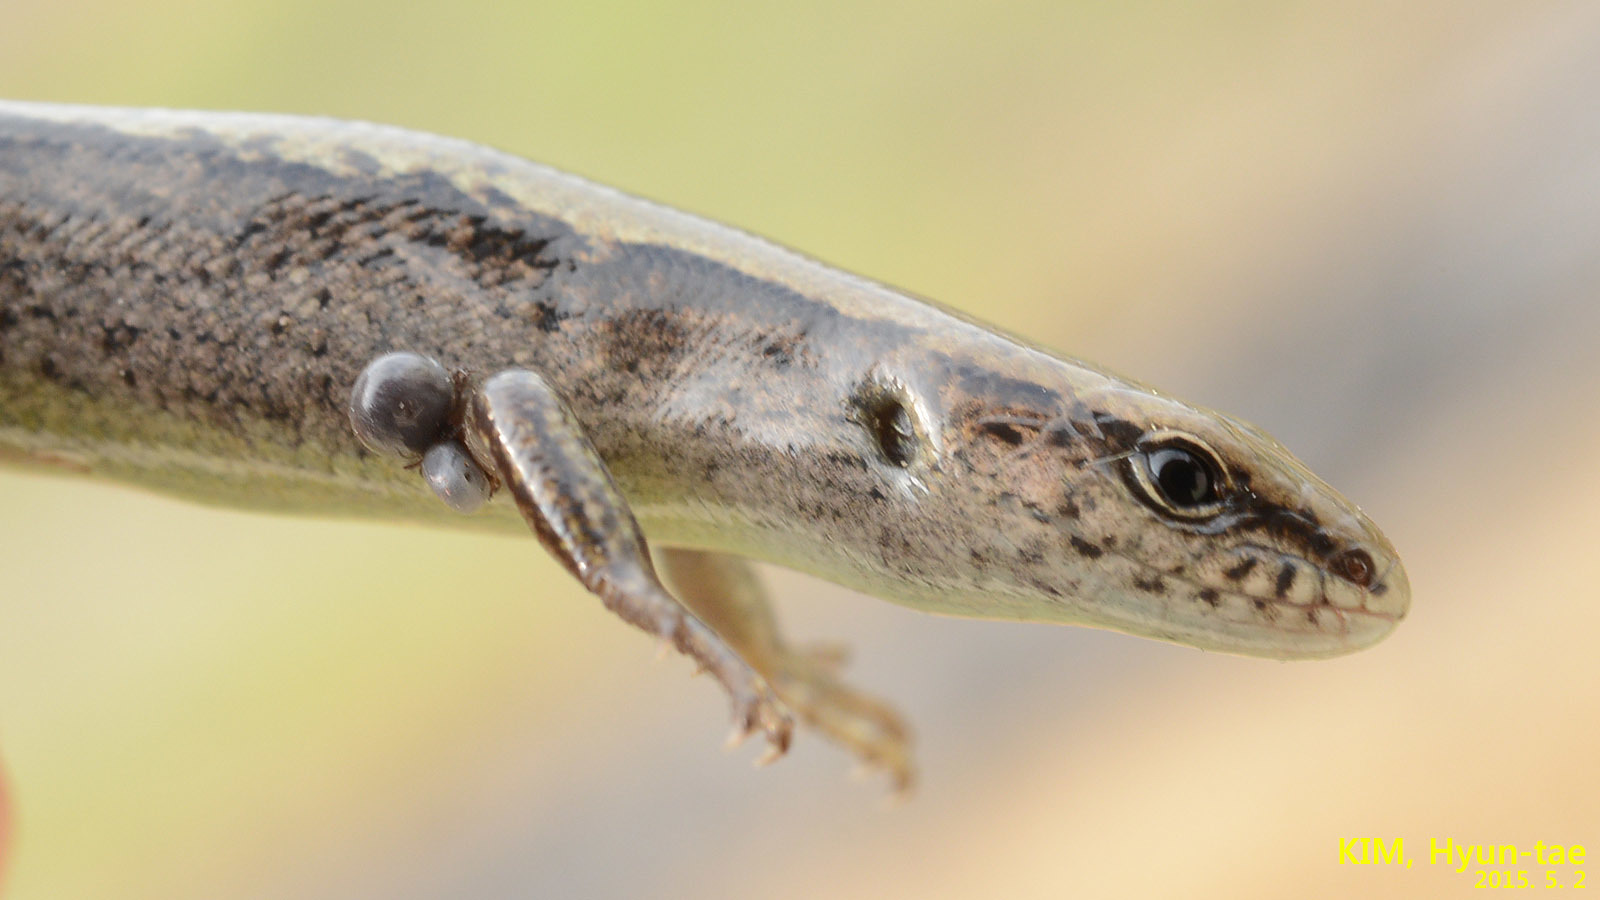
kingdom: Animalia
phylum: Chordata
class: Squamata
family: Scincidae
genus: Scincella
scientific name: Scincella vandenburghi
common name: Tsushima smooth skink
